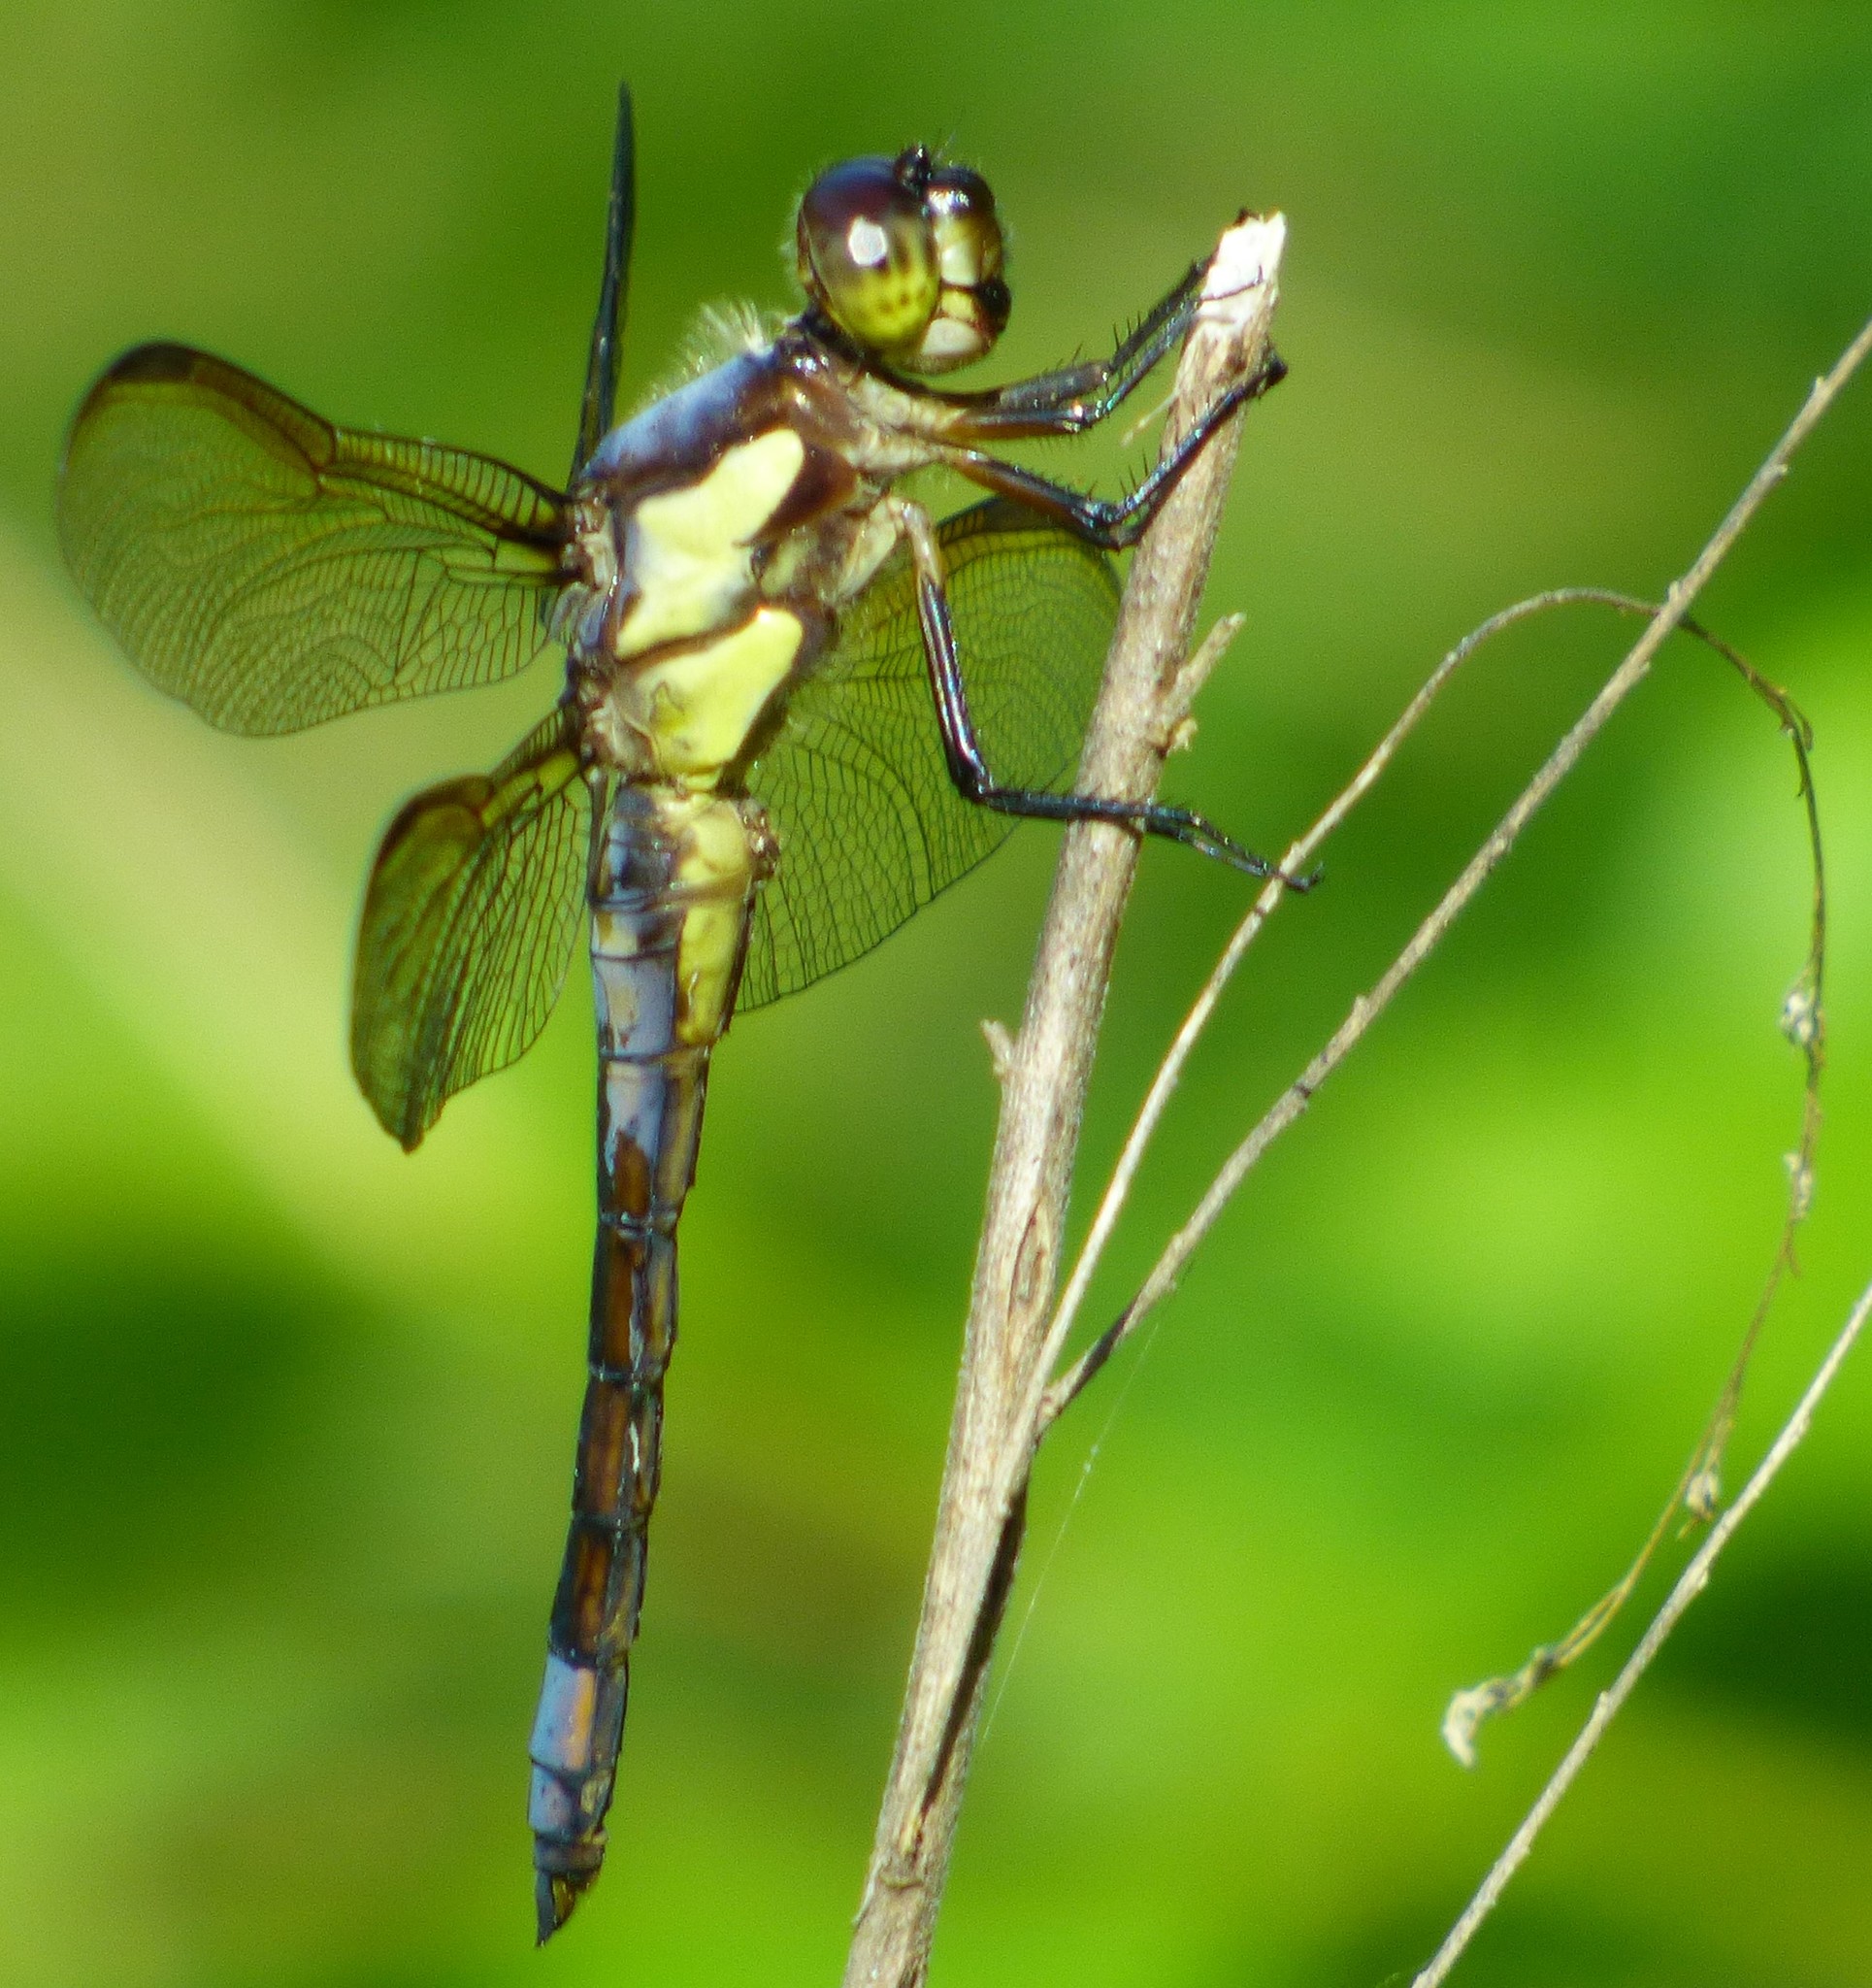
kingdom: Animalia
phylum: Arthropoda
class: Insecta
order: Odonata
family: Libellulidae
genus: Libellula
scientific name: Libellula flavida
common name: Yellow-sided skimmer
